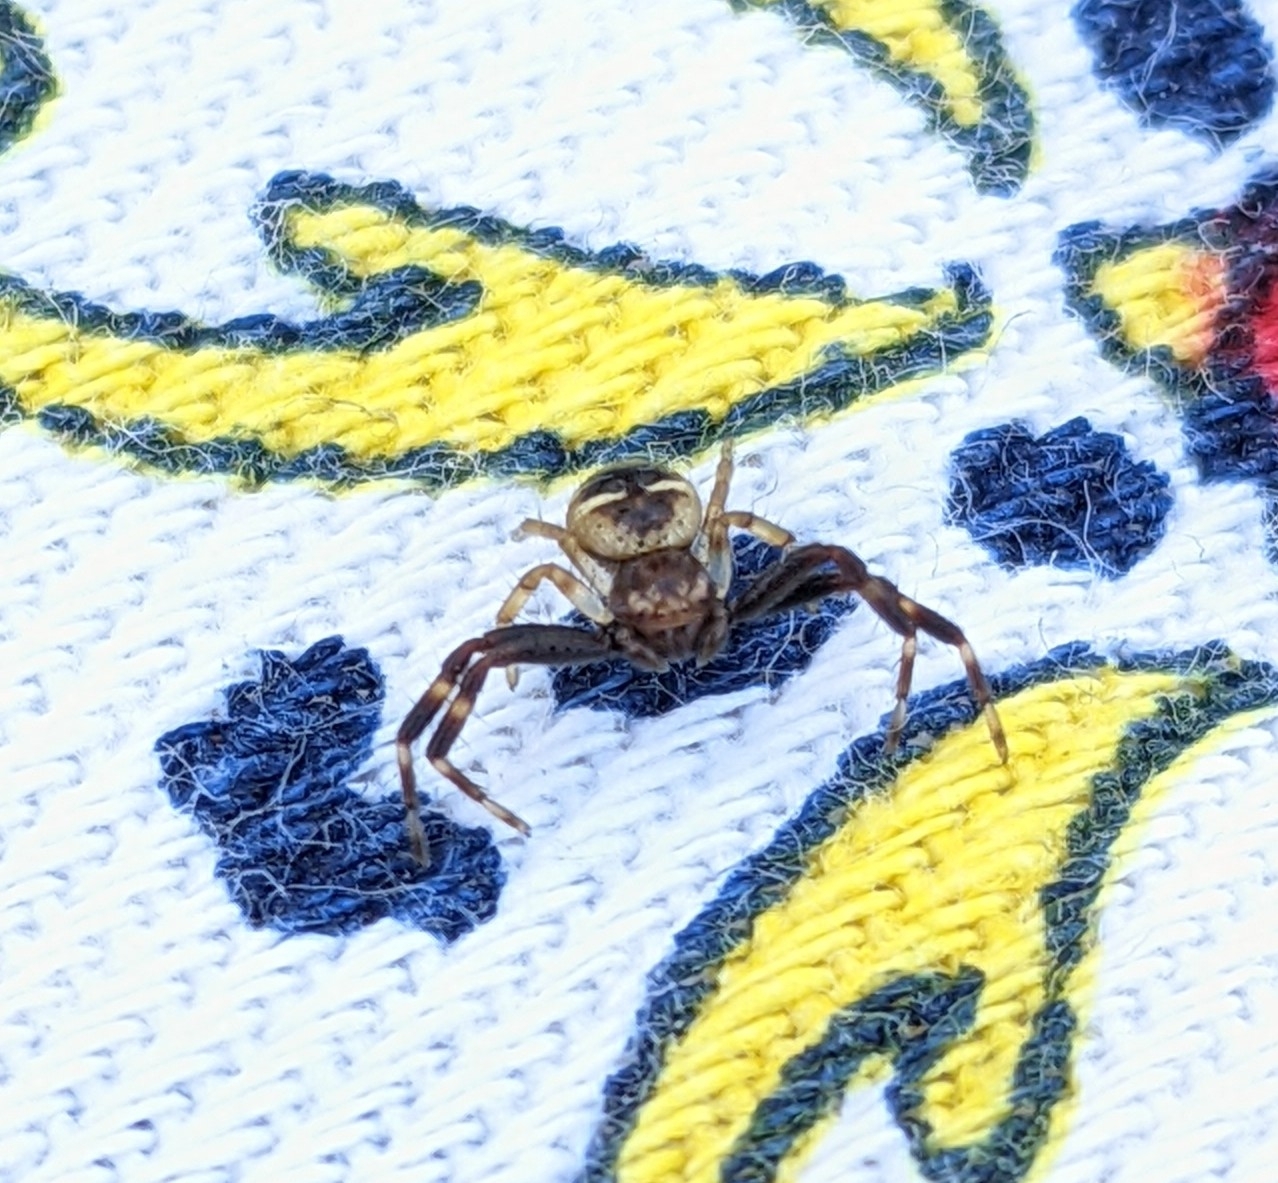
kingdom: Animalia
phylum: Arthropoda
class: Arachnida
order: Araneae
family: Thomisidae
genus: Synema
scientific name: Synema globosum
